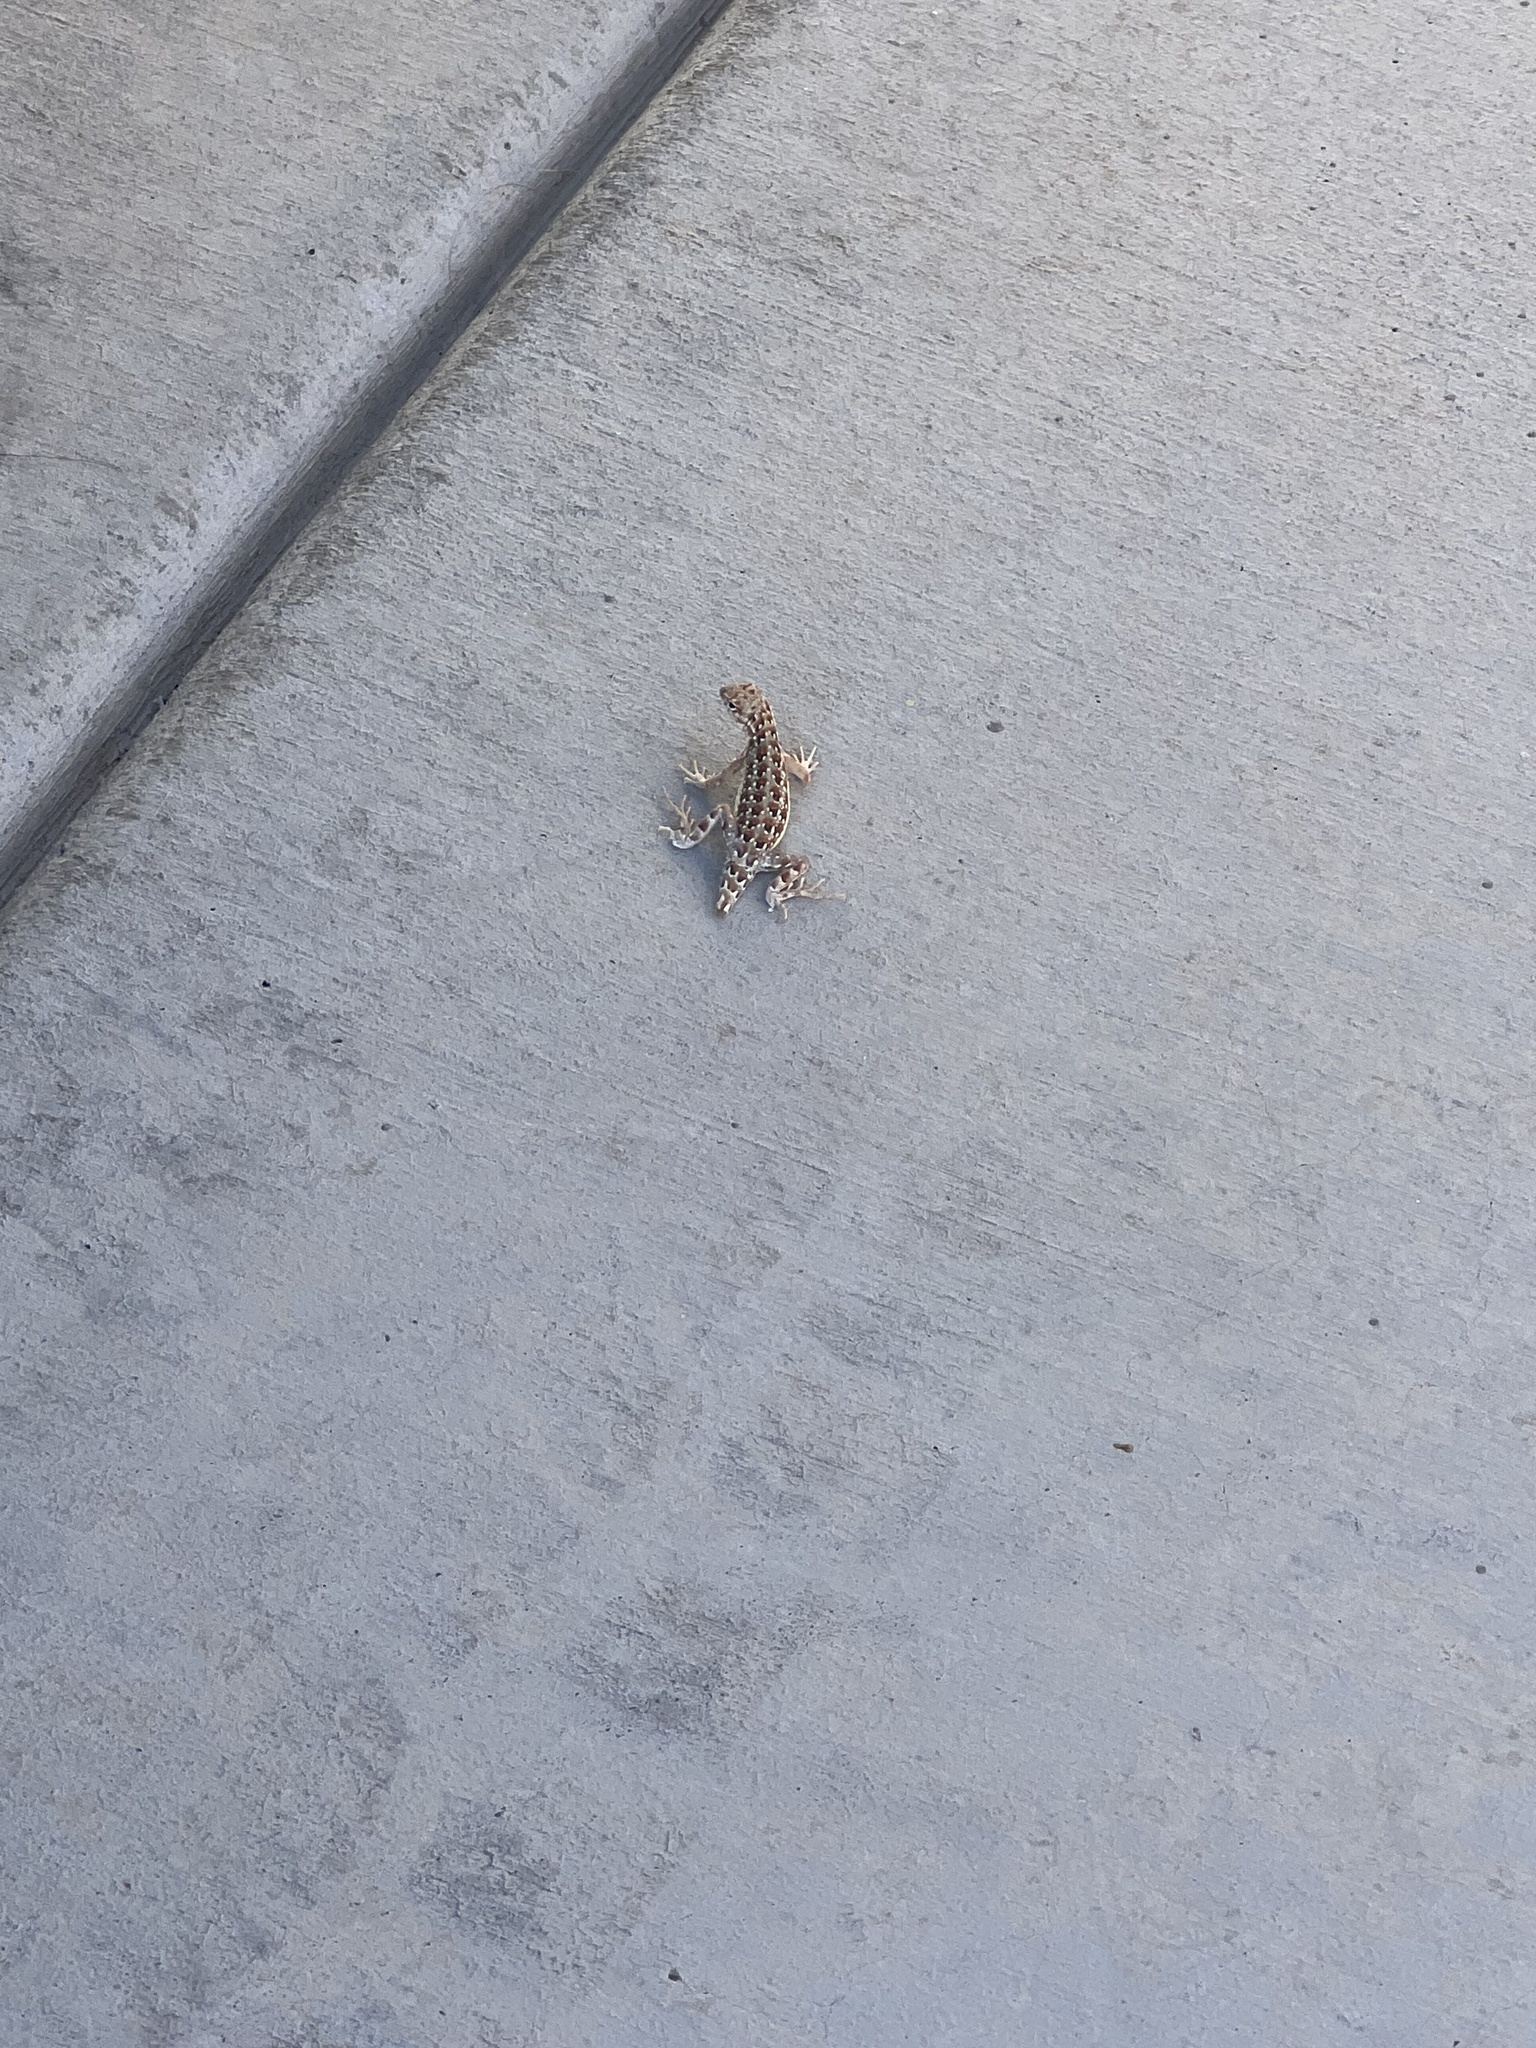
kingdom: Animalia
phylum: Chordata
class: Squamata
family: Phrynosomatidae
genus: Holbrookia
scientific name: Holbrookia elegans
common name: Elegant earless lizard
